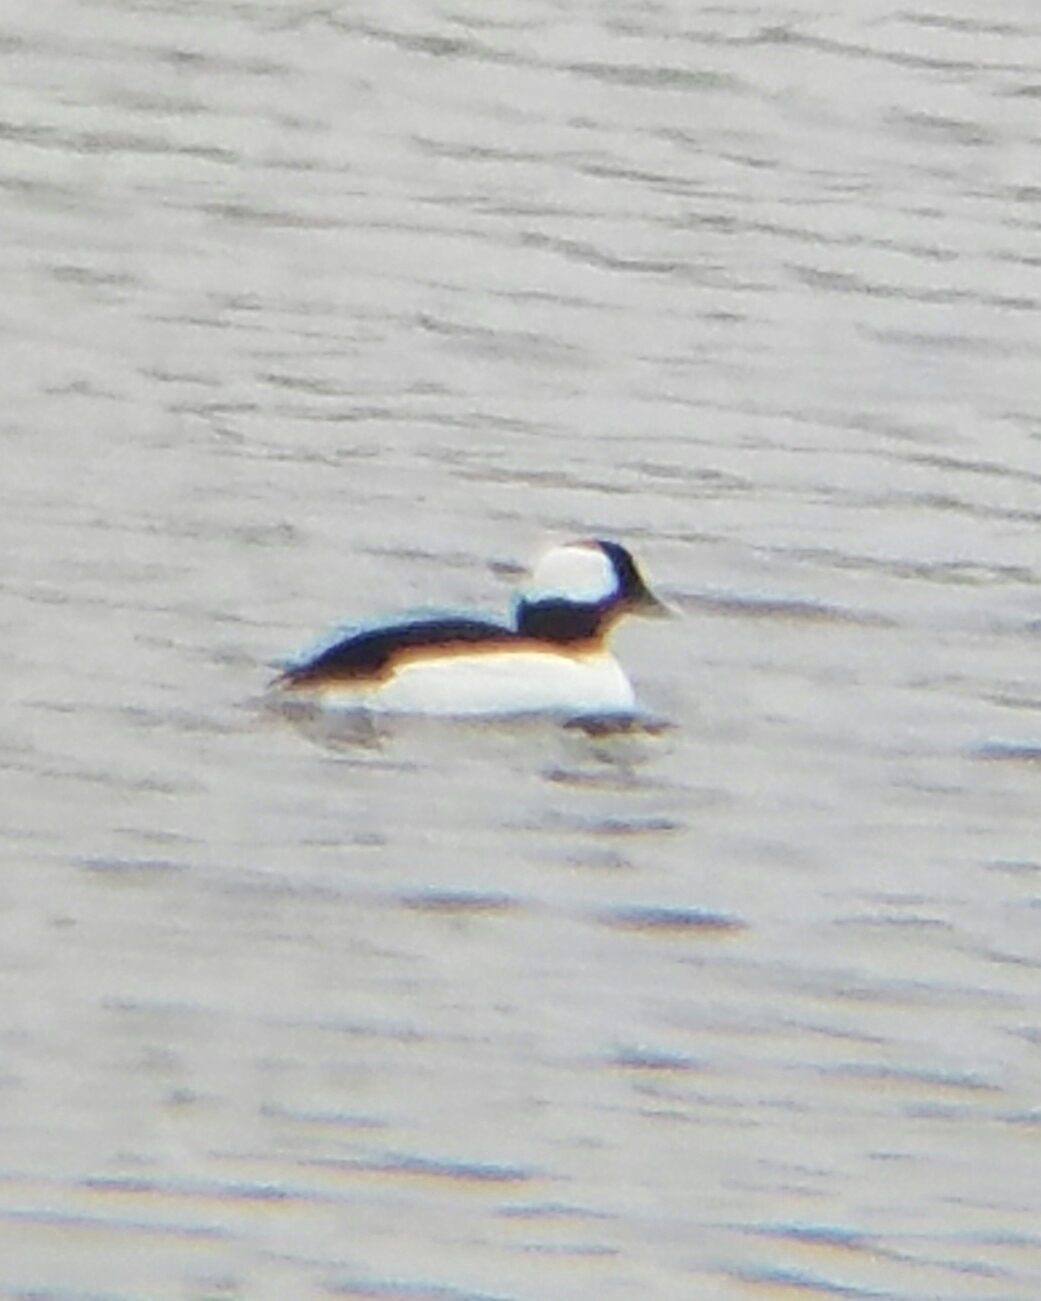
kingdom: Animalia
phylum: Chordata
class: Aves
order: Anseriformes
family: Anatidae
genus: Bucephala
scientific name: Bucephala albeola
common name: Bufflehead
